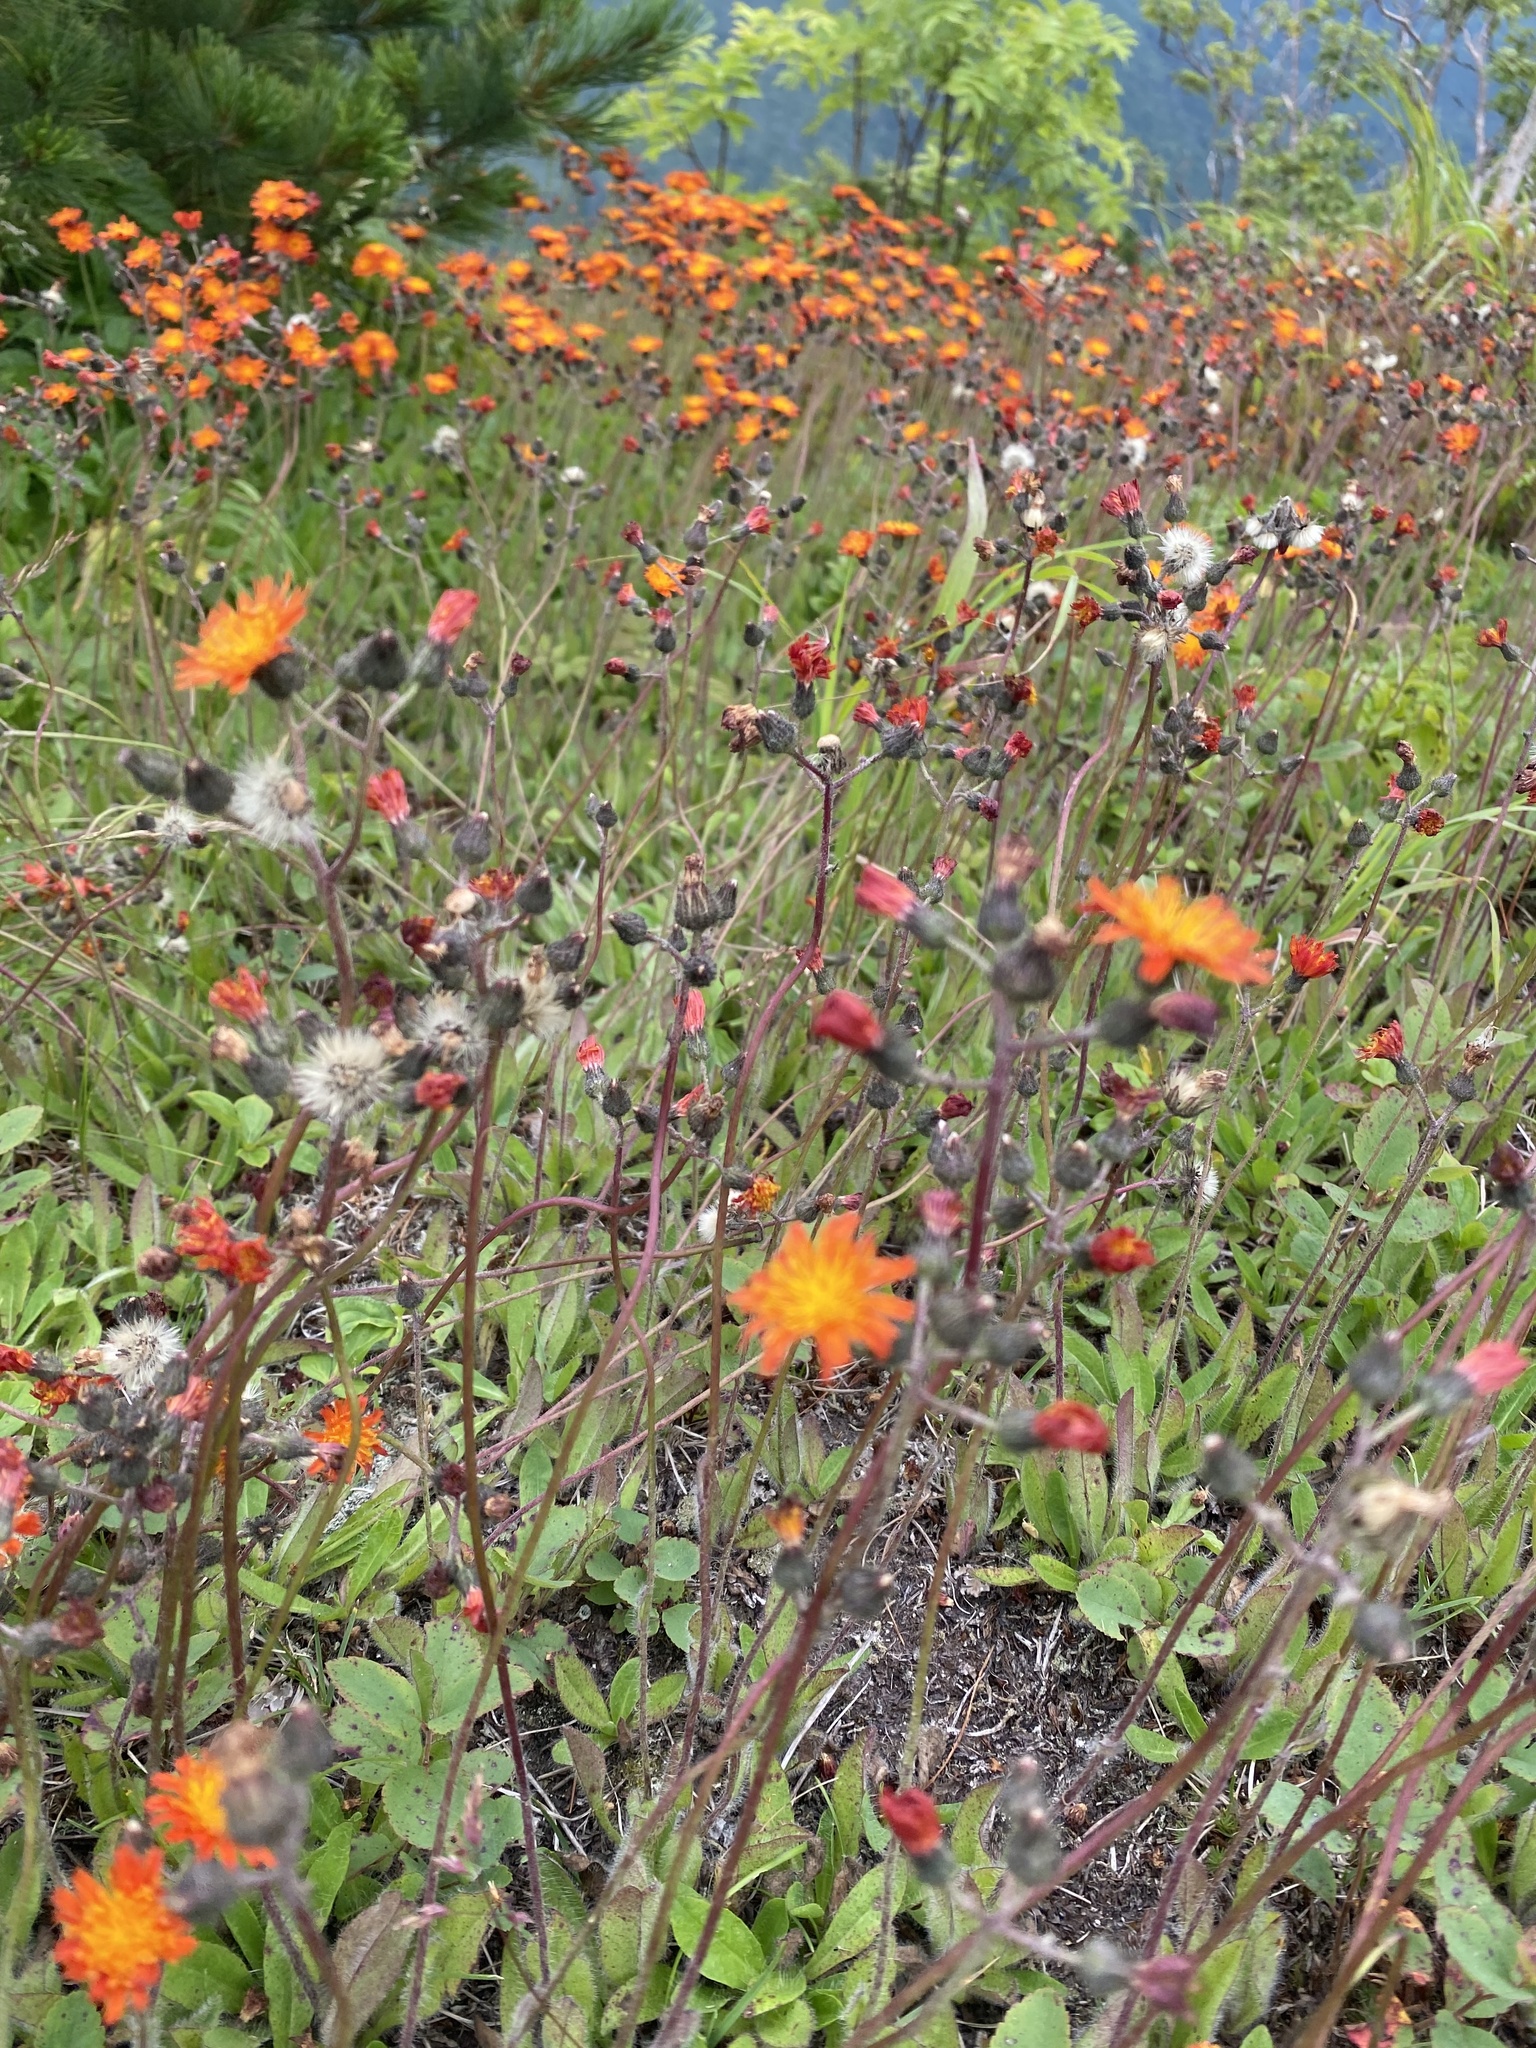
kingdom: Plantae
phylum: Tracheophyta
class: Magnoliopsida
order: Asterales
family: Asteraceae
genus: Pilosella
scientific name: Pilosella aurantiaca
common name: Fox-and-cubs
